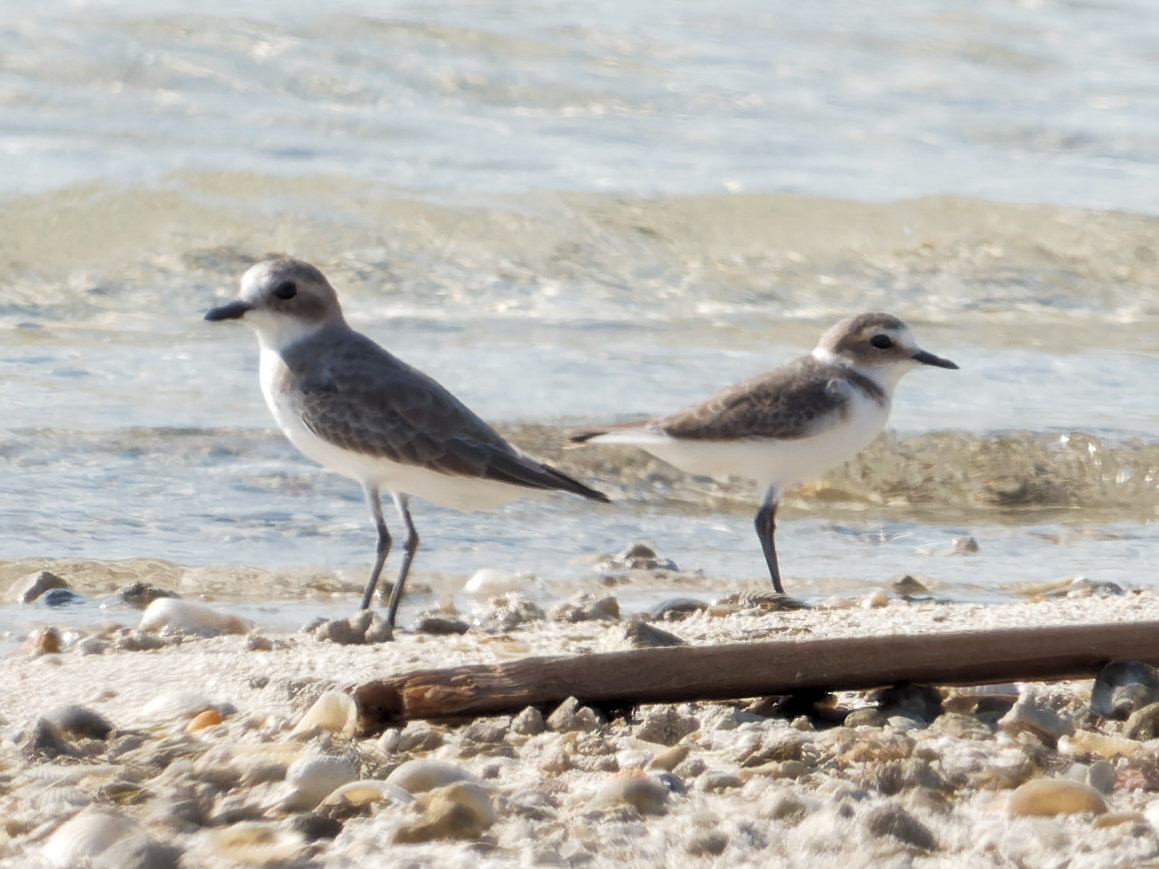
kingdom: Animalia
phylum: Chordata
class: Aves
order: Charadriiformes
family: Charadriidae
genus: Charadrius
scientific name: Charadrius leschenaultii
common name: Greater sand plover
